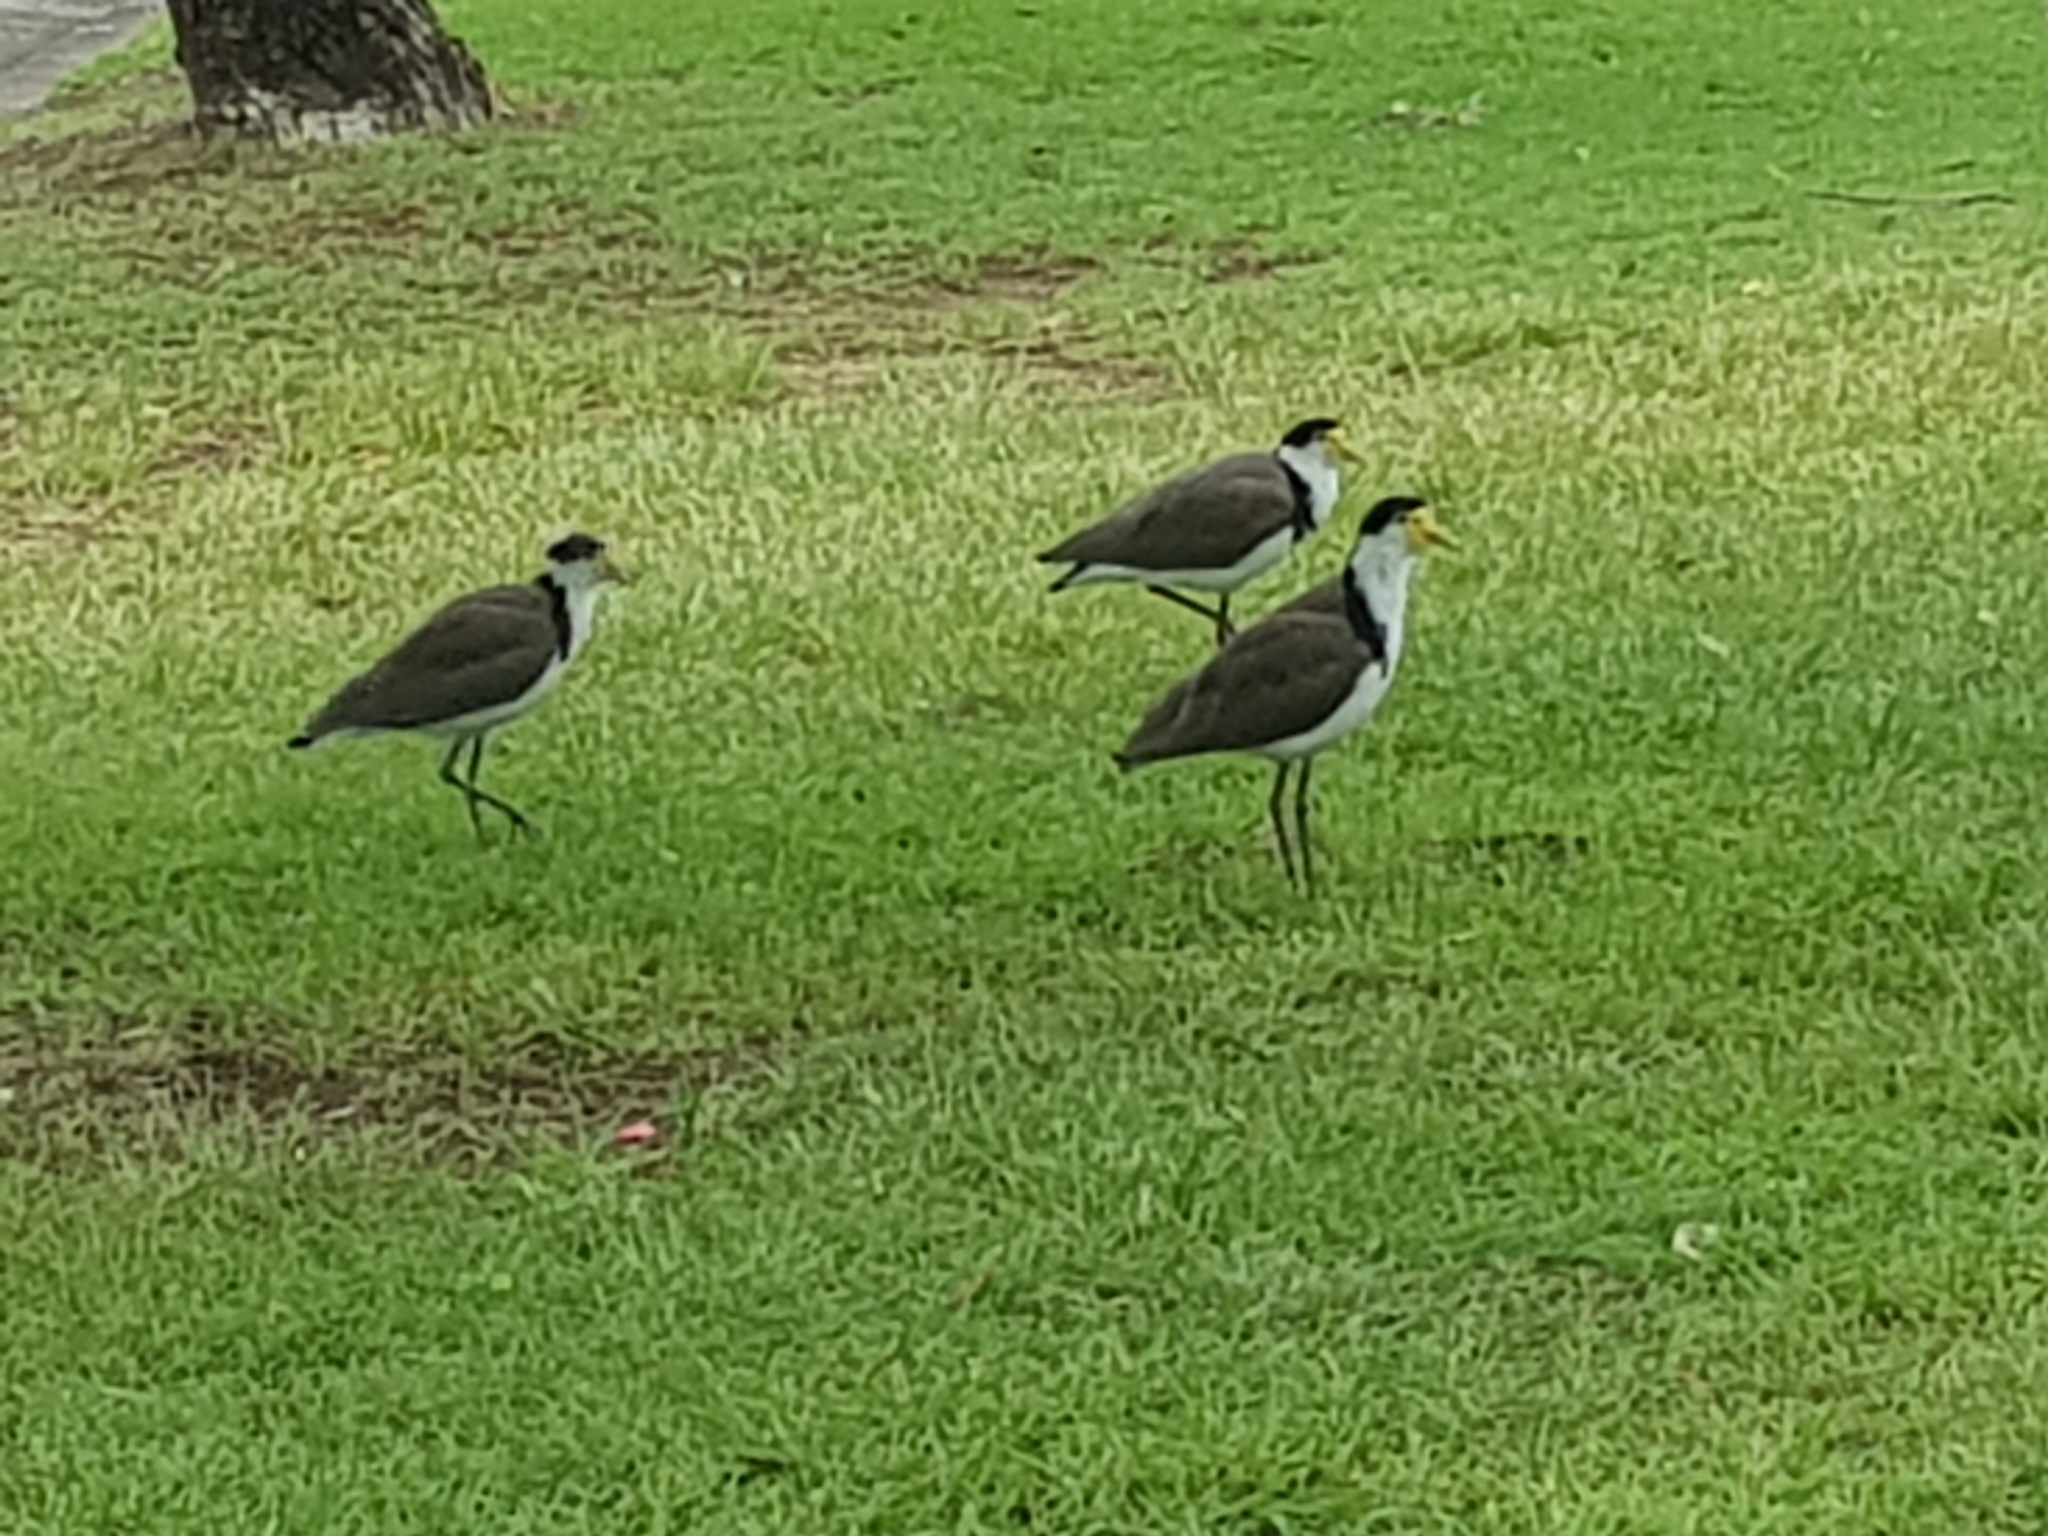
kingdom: Animalia
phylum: Chordata
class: Aves
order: Charadriiformes
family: Charadriidae
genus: Vanellus
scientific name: Vanellus miles
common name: Masked lapwing
